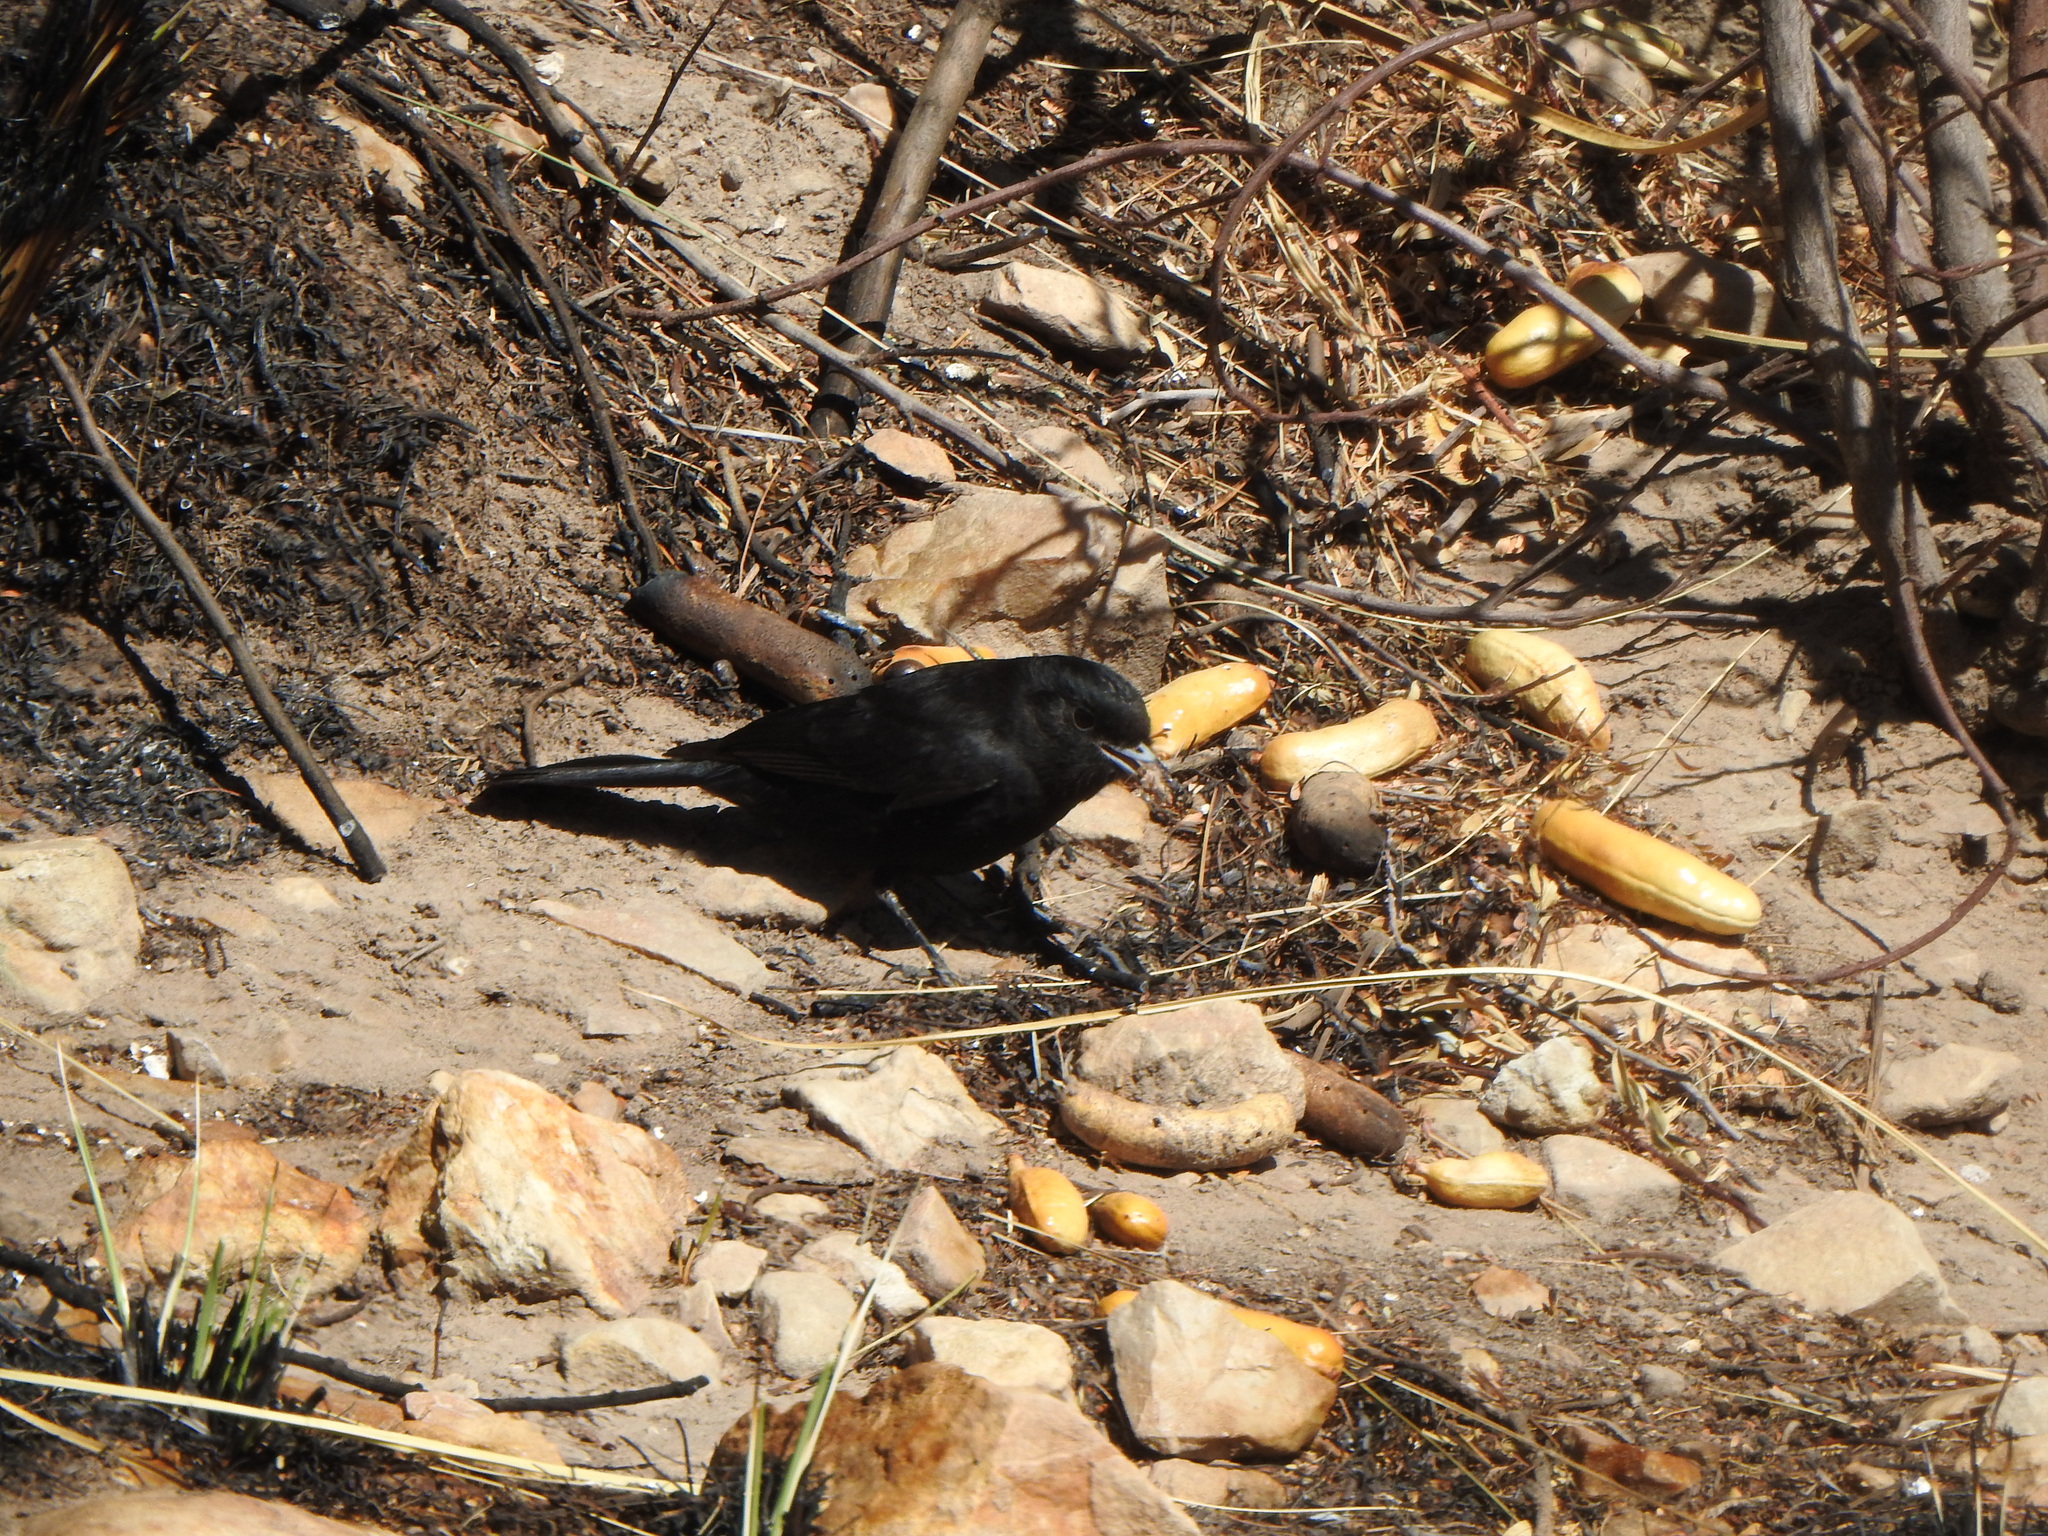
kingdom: Animalia
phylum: Chordata
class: Aves
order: Passeriformes
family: Tyrannidae
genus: Knipolegus
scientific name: Knipolegus aterrimus
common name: White-winged black tyrant
